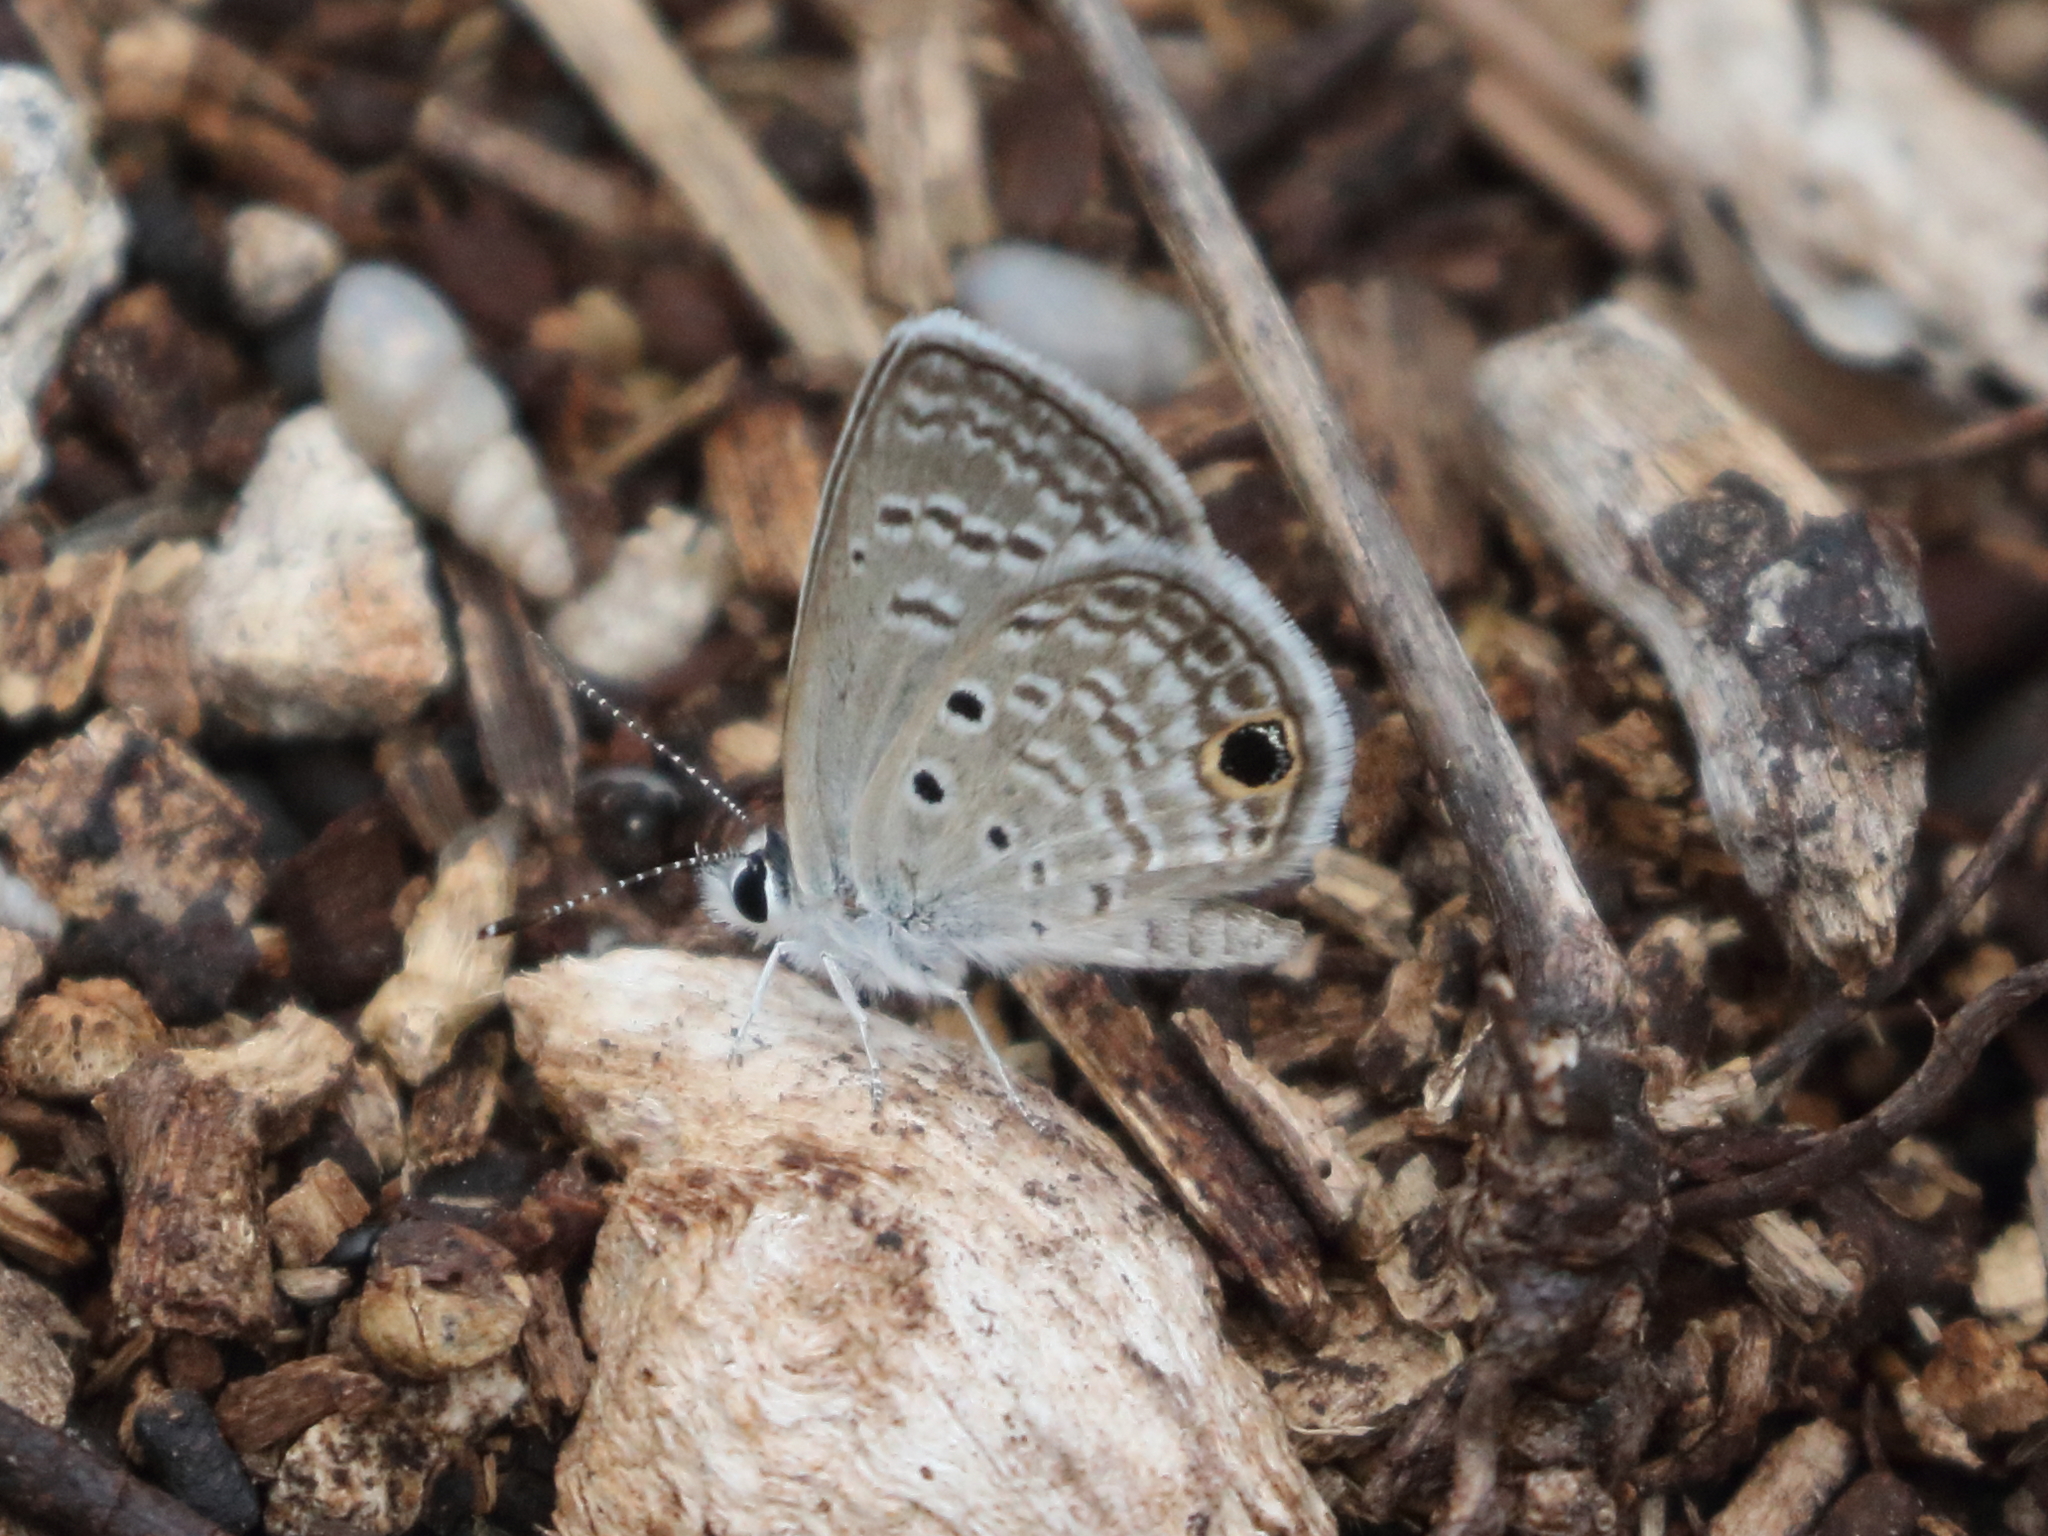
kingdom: Animalia
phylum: Arthropoda
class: Insecta
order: Lepidoptera
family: Lycaenidae
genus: Hemiargus
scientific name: Hemiargus ceraunus
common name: Ceraunus blue
